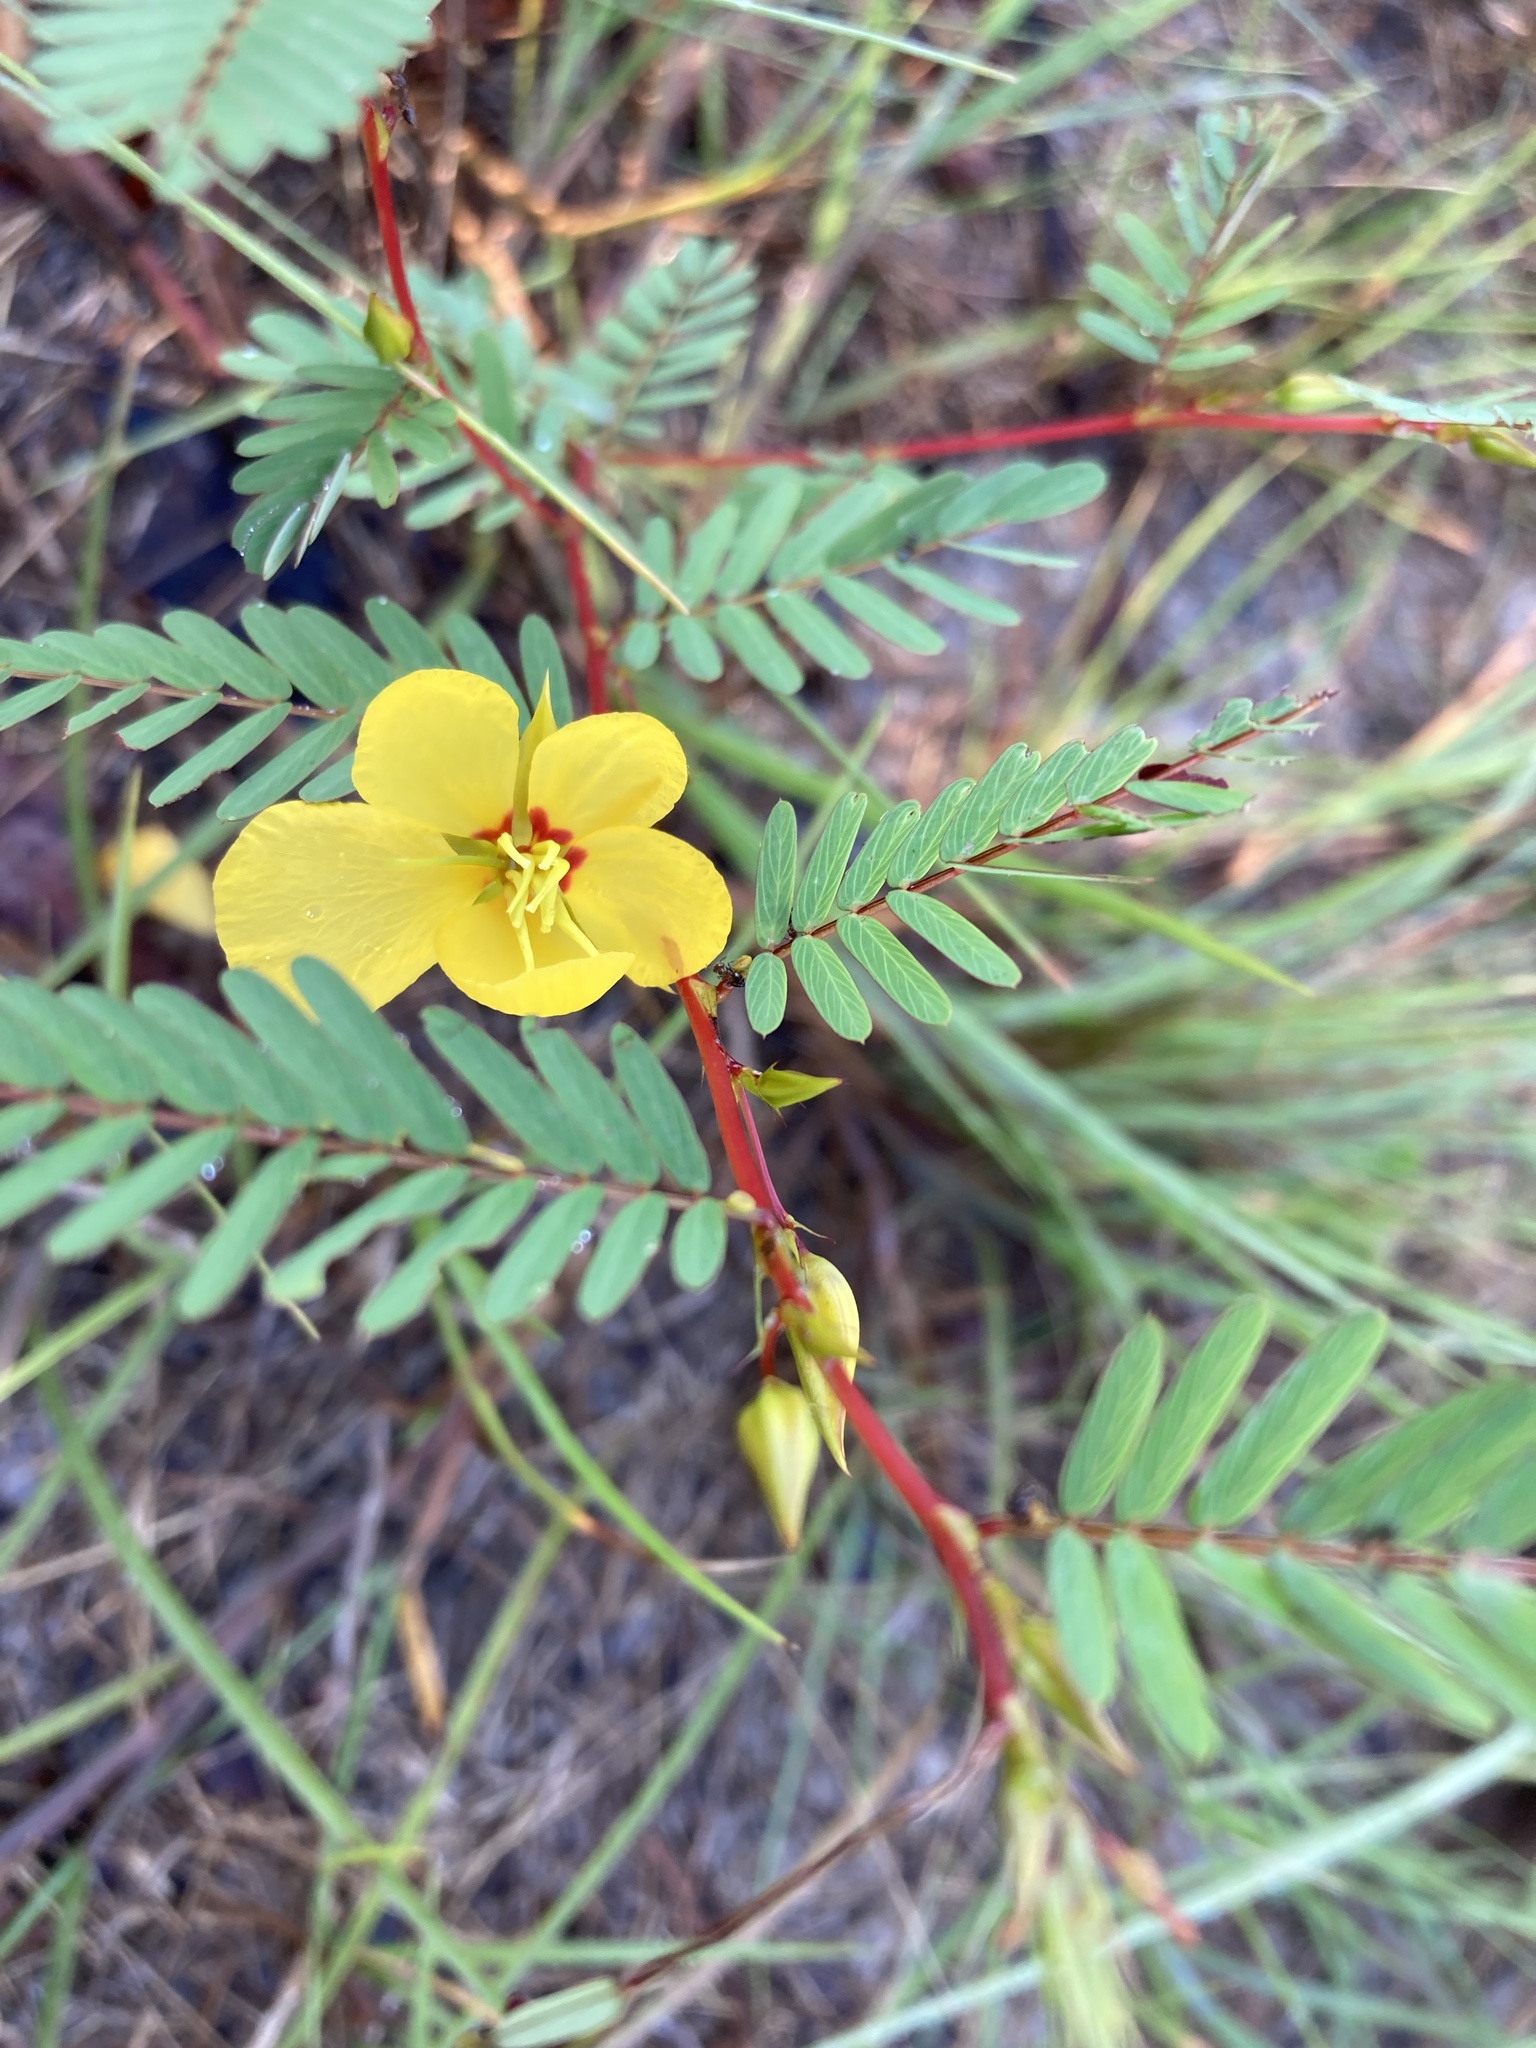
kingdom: Plantae
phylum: Tracheophyta
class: Magnoliopsida
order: Fabales
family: Fabaceae
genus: Chamaecrista
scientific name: Chamaecrista fasciculata
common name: Golden cassia
